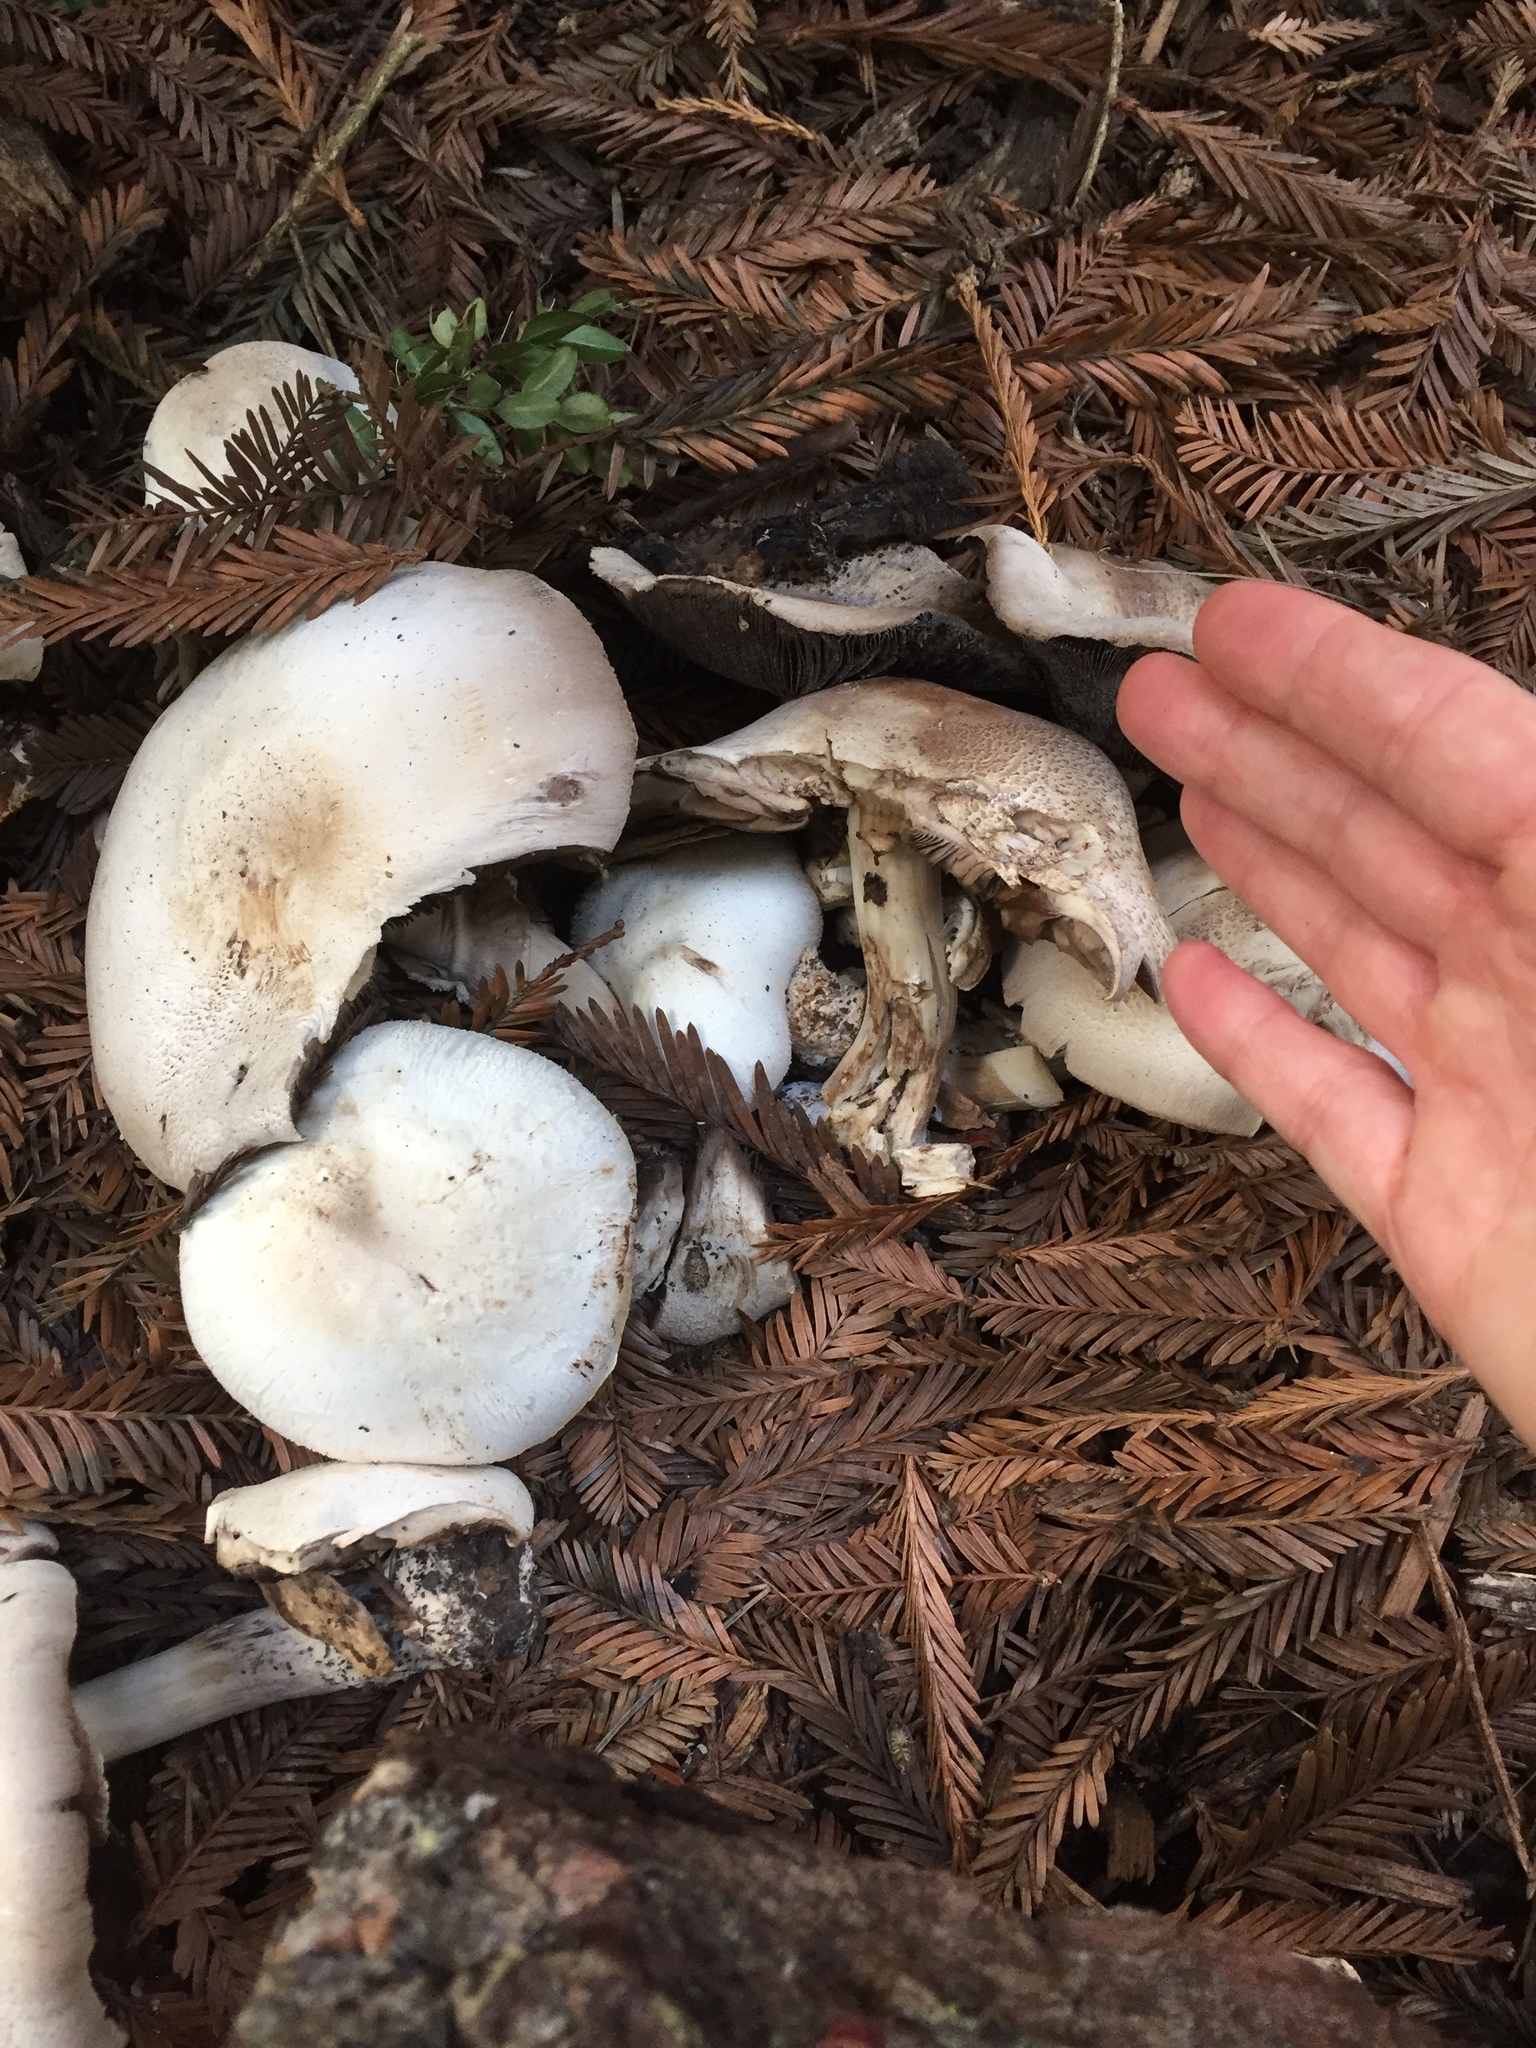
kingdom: Fungi
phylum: Basidiomycota
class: Agaricomycetes
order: Agaricales
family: Agaricaceae
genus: Agaricus
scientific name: Agaricus xanthodermus
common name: Yellow stainer
